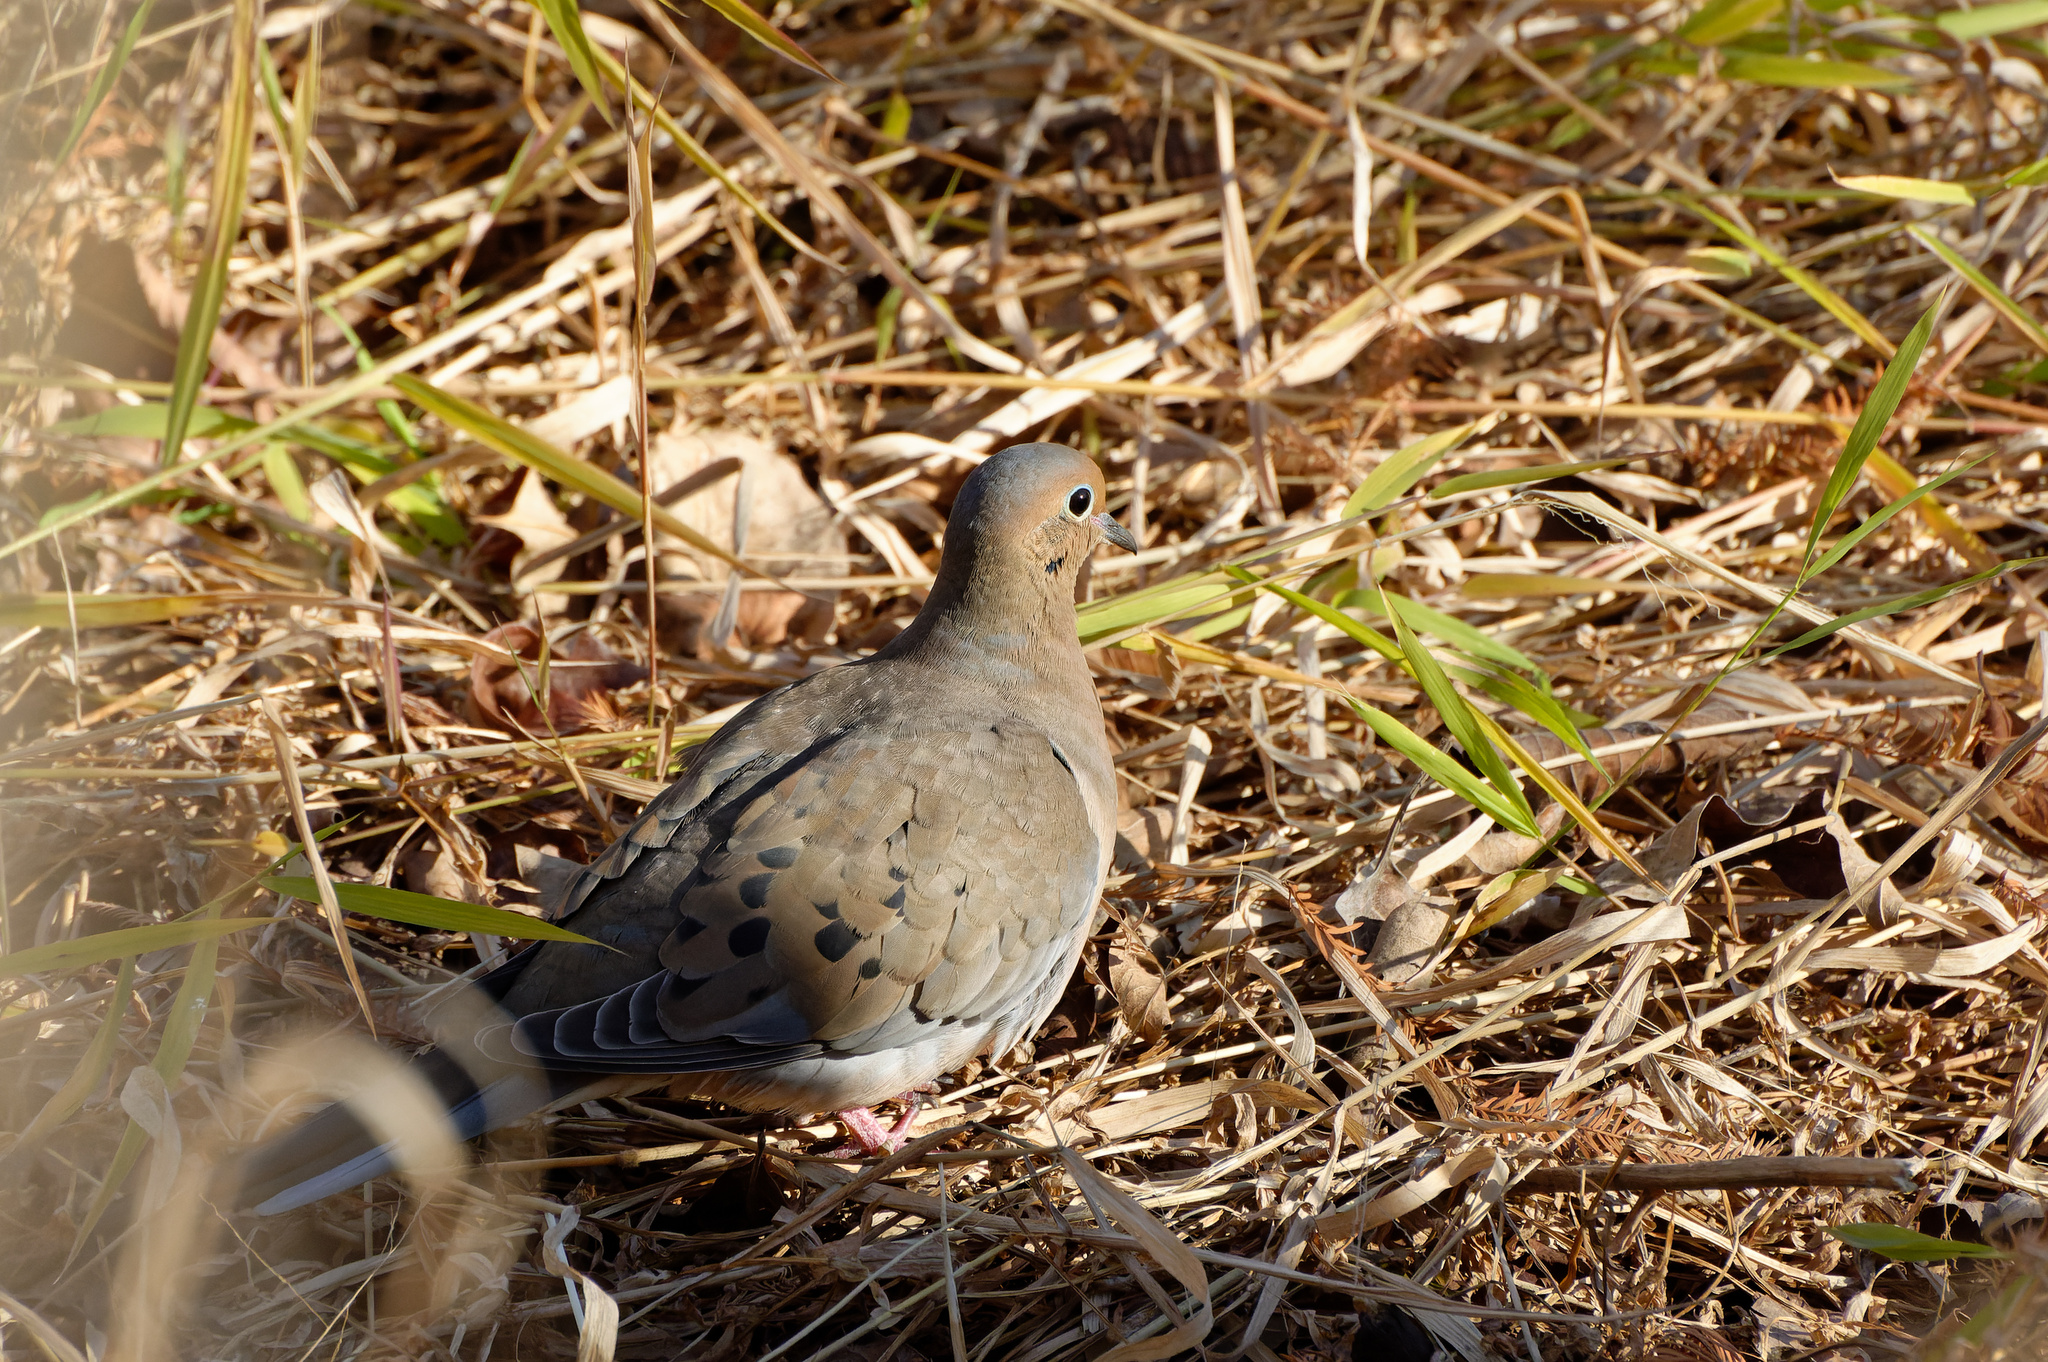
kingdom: Animalia
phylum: Chordata
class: Aves
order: Columbiformes
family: Columbidae
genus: Zenaida
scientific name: Zenaida macroura
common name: Mourning dove
